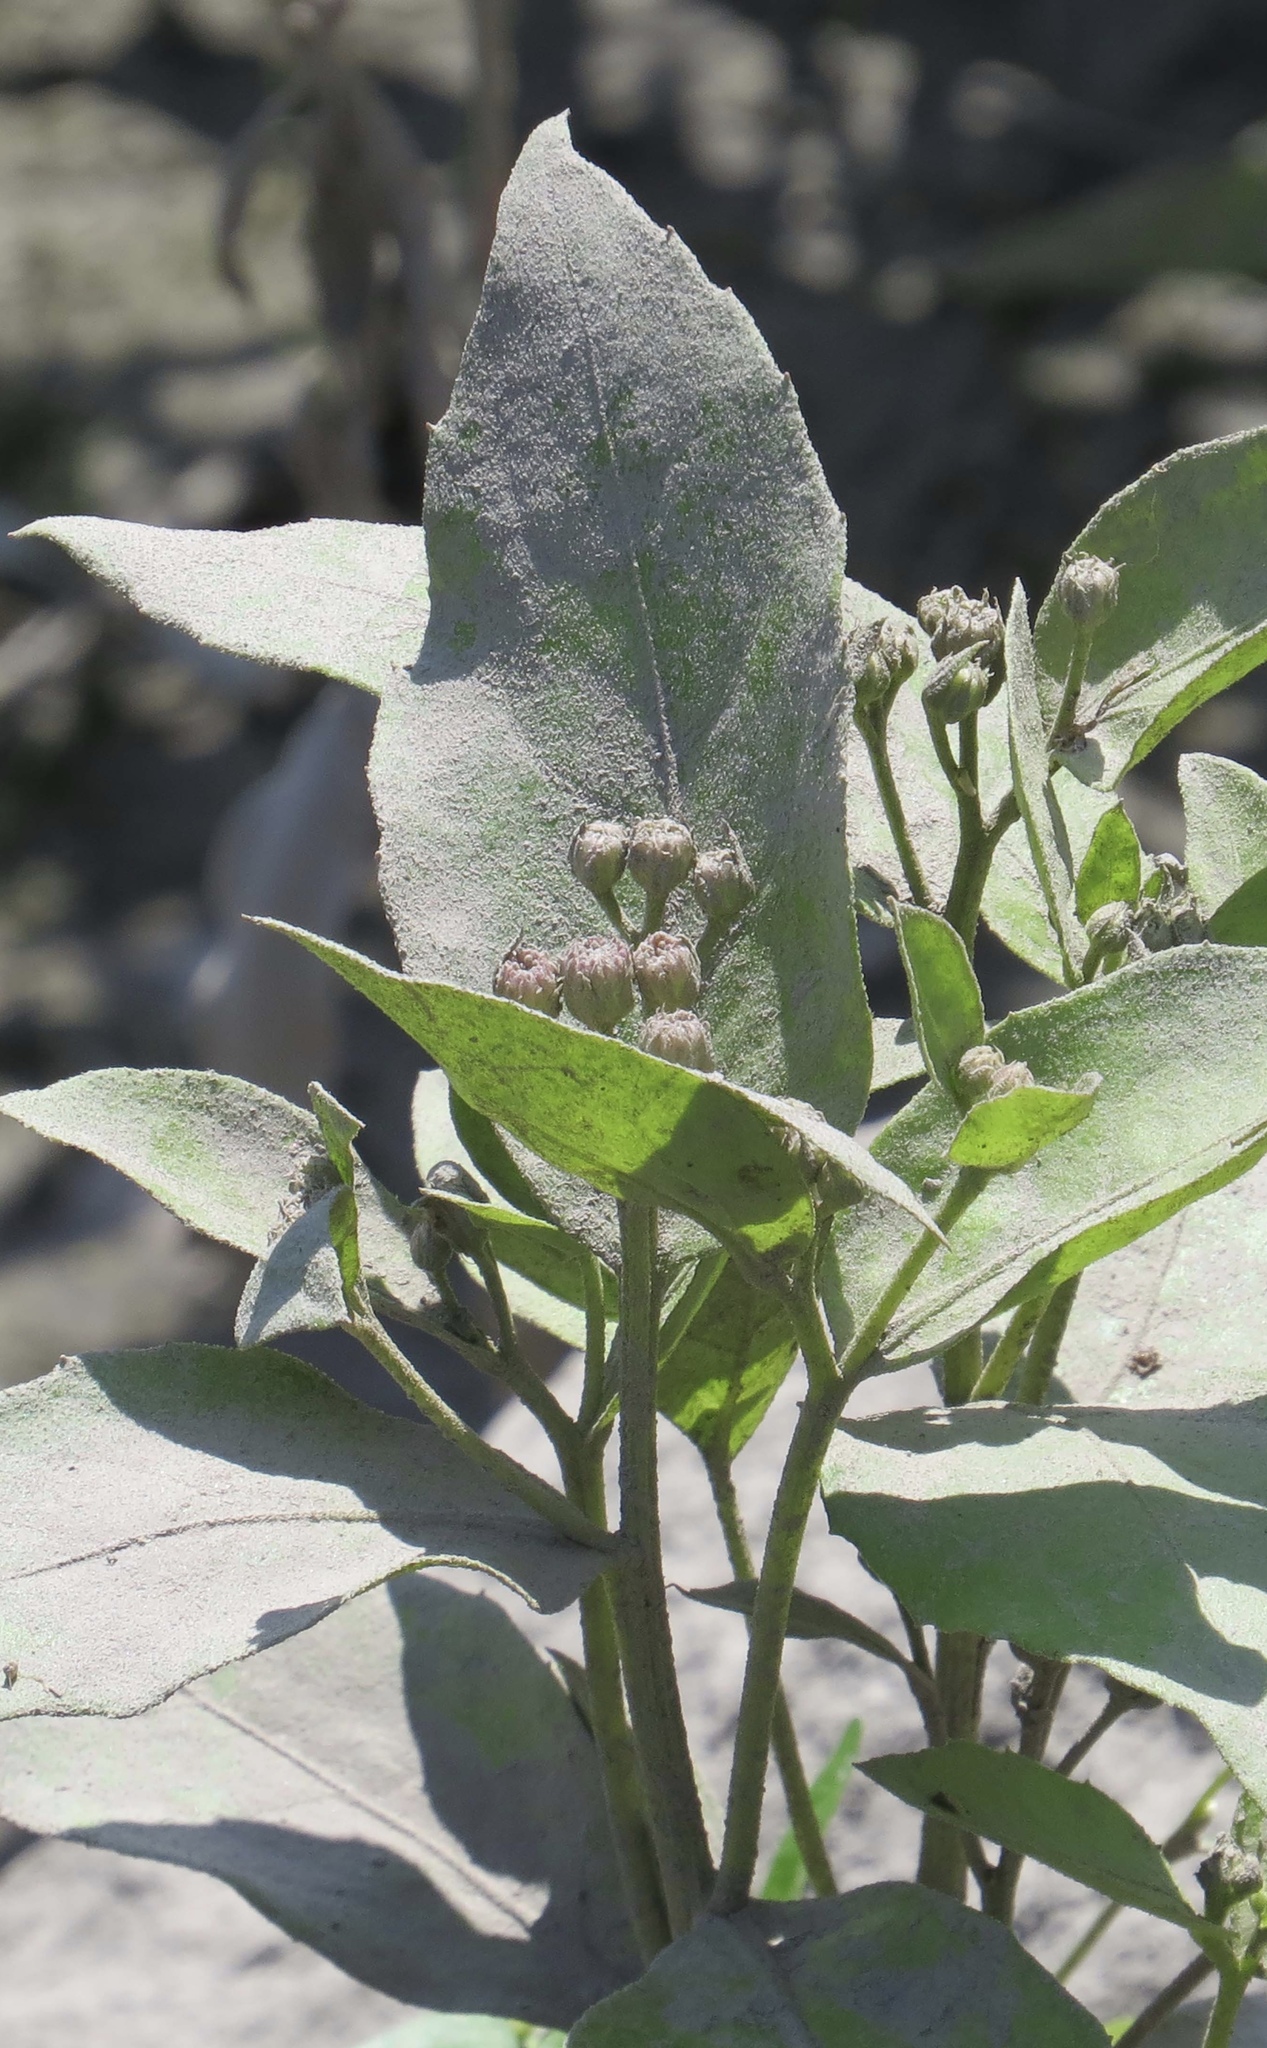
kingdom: Plantae
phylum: Tracheophyta
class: Magnoliopsida
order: Asterales
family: Asteraceae
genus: Pluchea
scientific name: Pluchea odorata
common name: Saltmarsh fleabane
